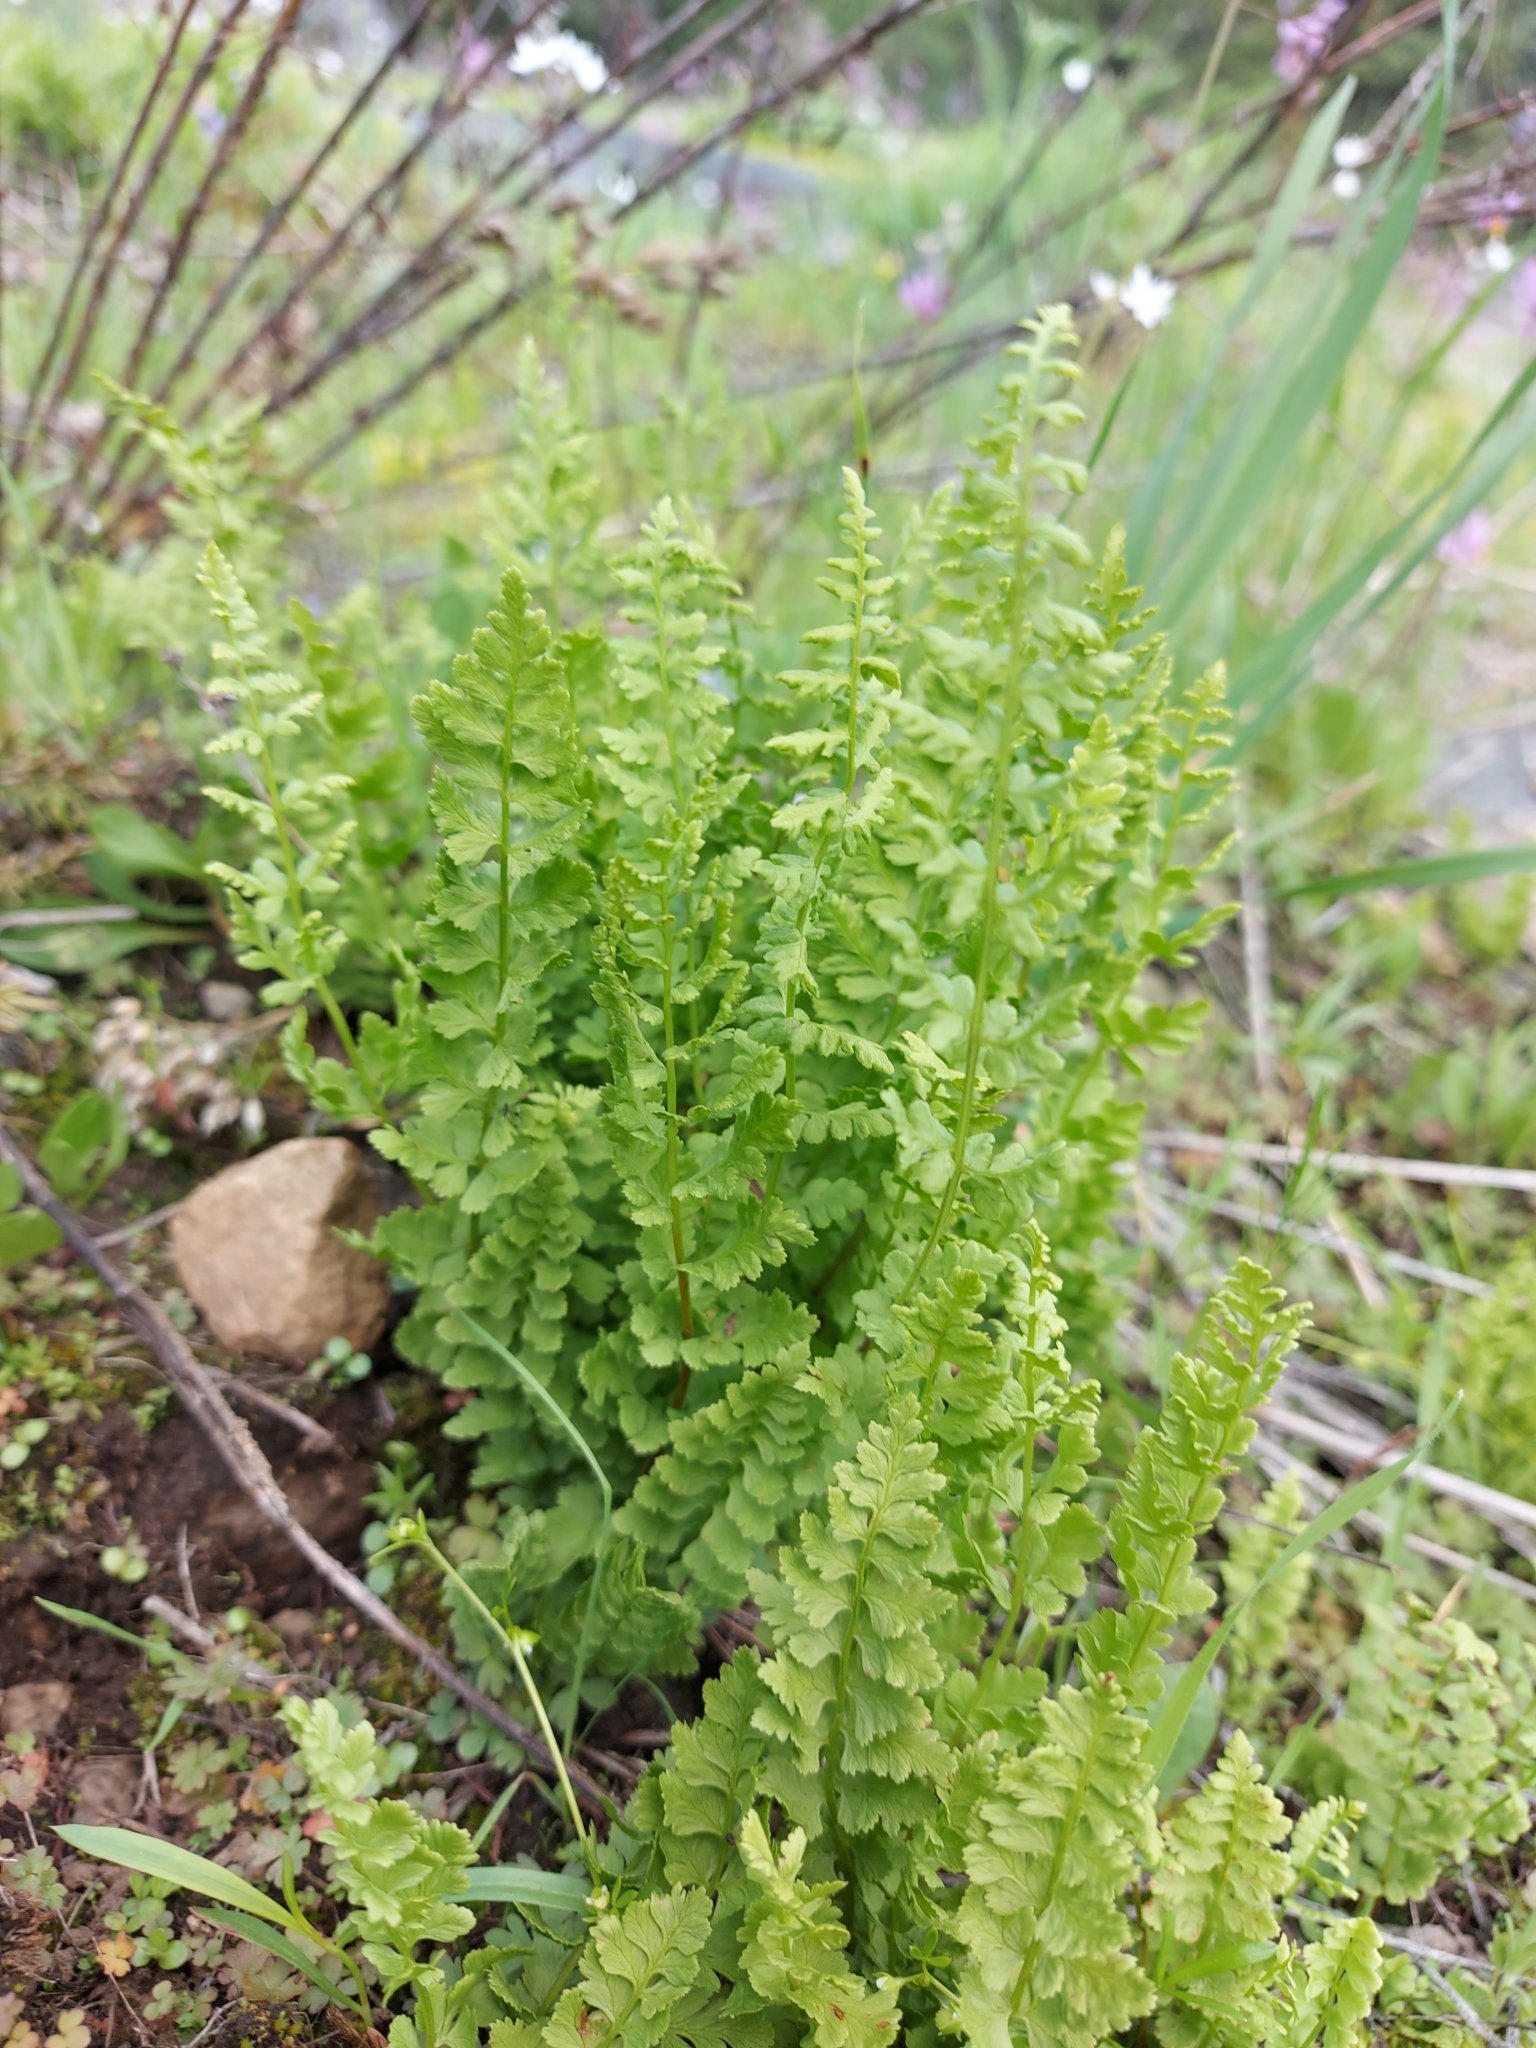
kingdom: Plantae
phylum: Tracheophyta
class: Polypodiopsida
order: Polypodiales
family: Cystopteridaceae
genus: Cystopteris
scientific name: Cystopteris fragilis
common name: Brittle bladder fern
